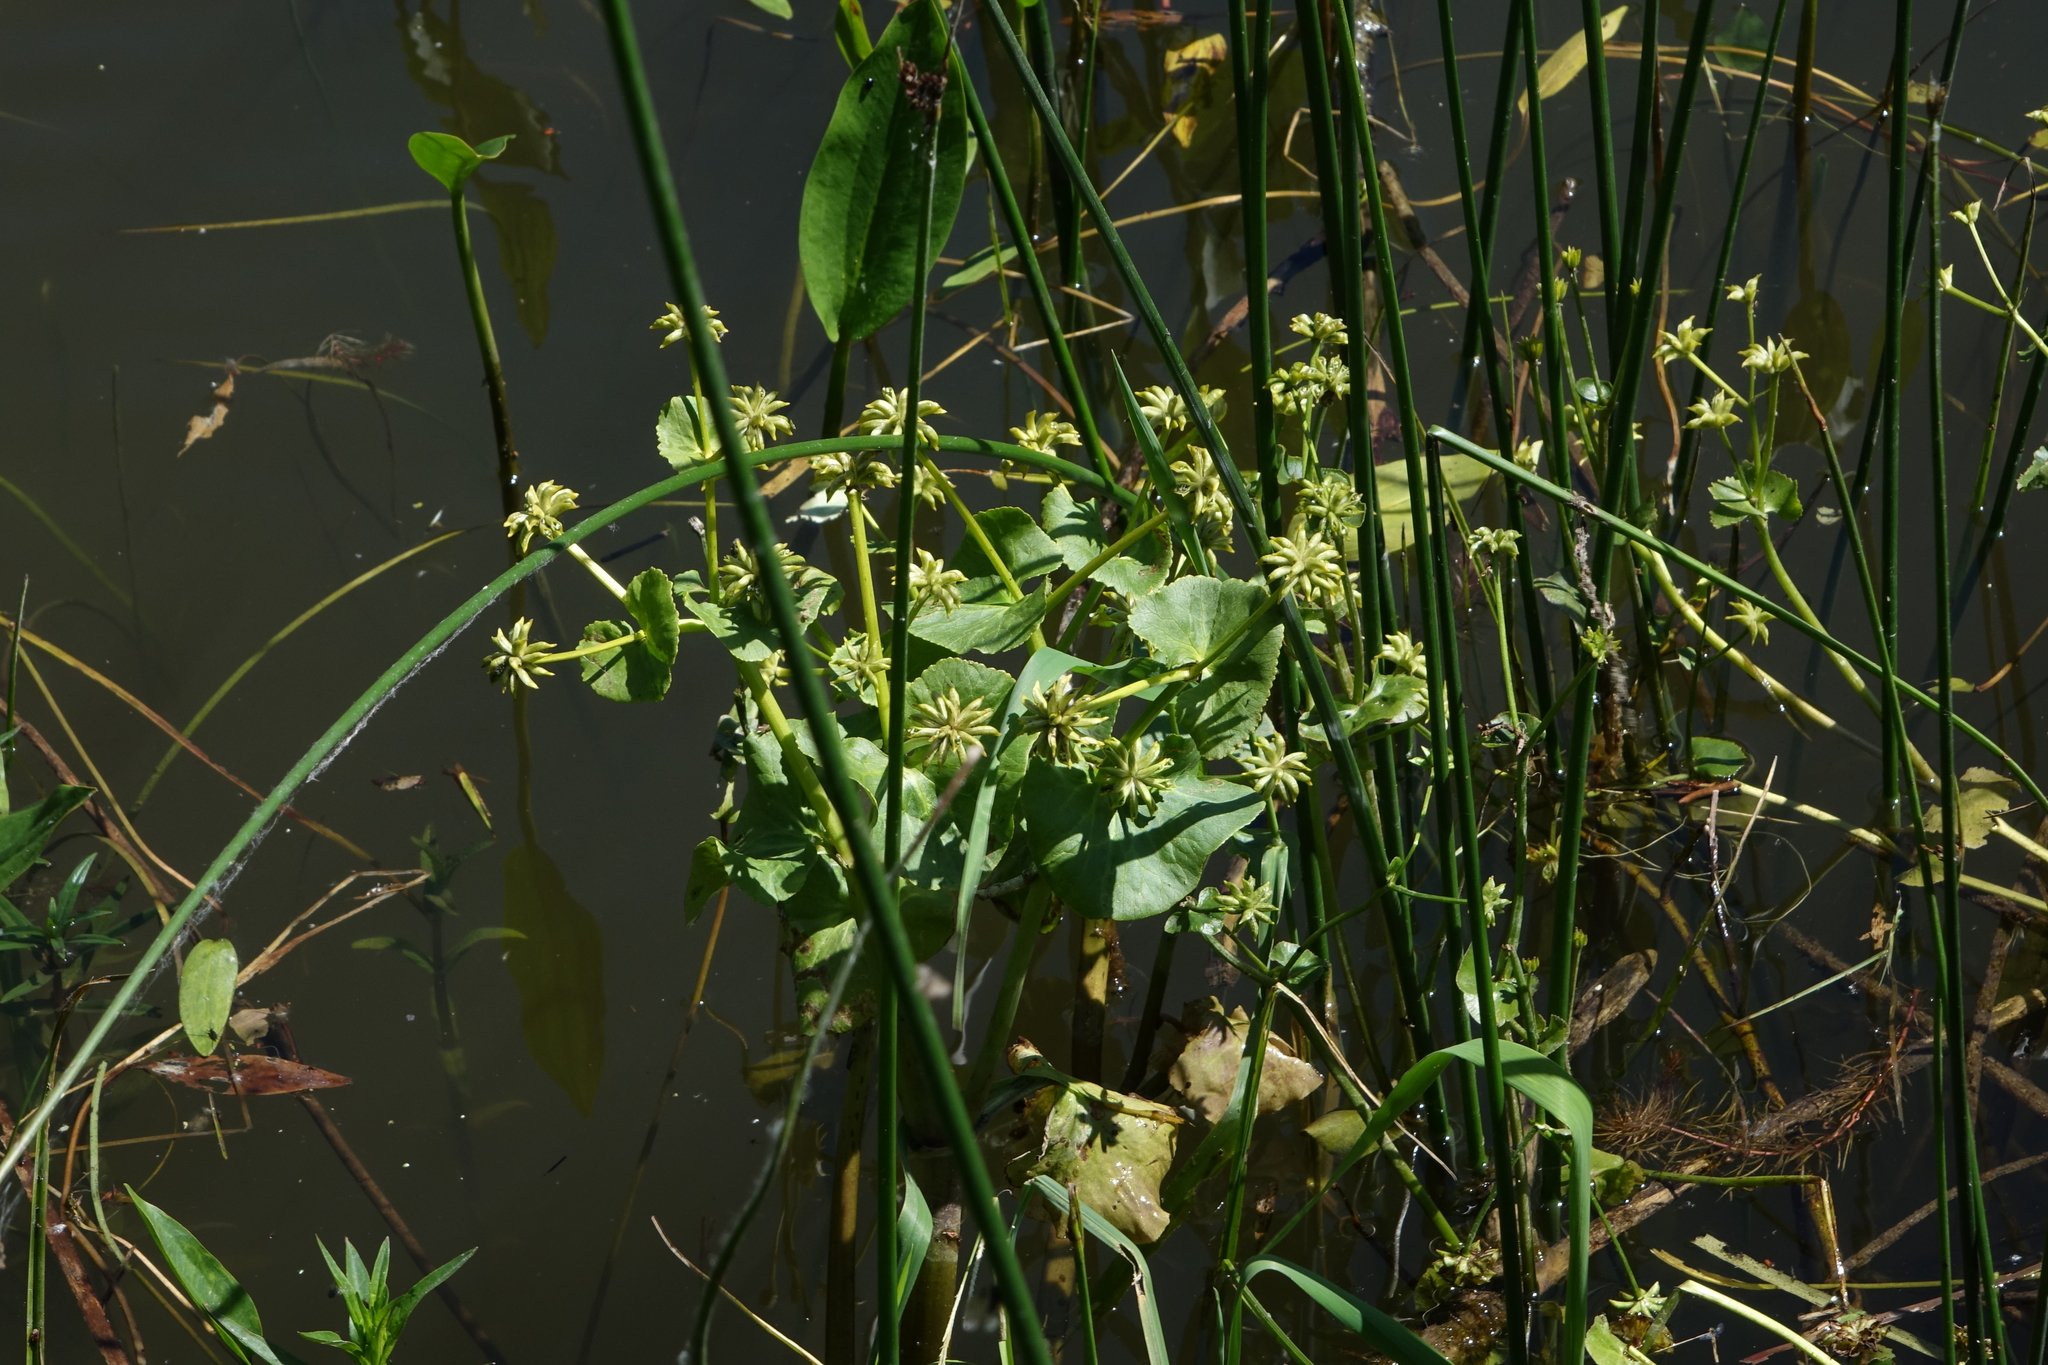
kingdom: Plantae
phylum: Tracheophyta
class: Magnoliopsida
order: Ranunculales
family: Ranunculaceae
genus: Caltha
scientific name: Caltha palustris
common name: Marsh marigold
